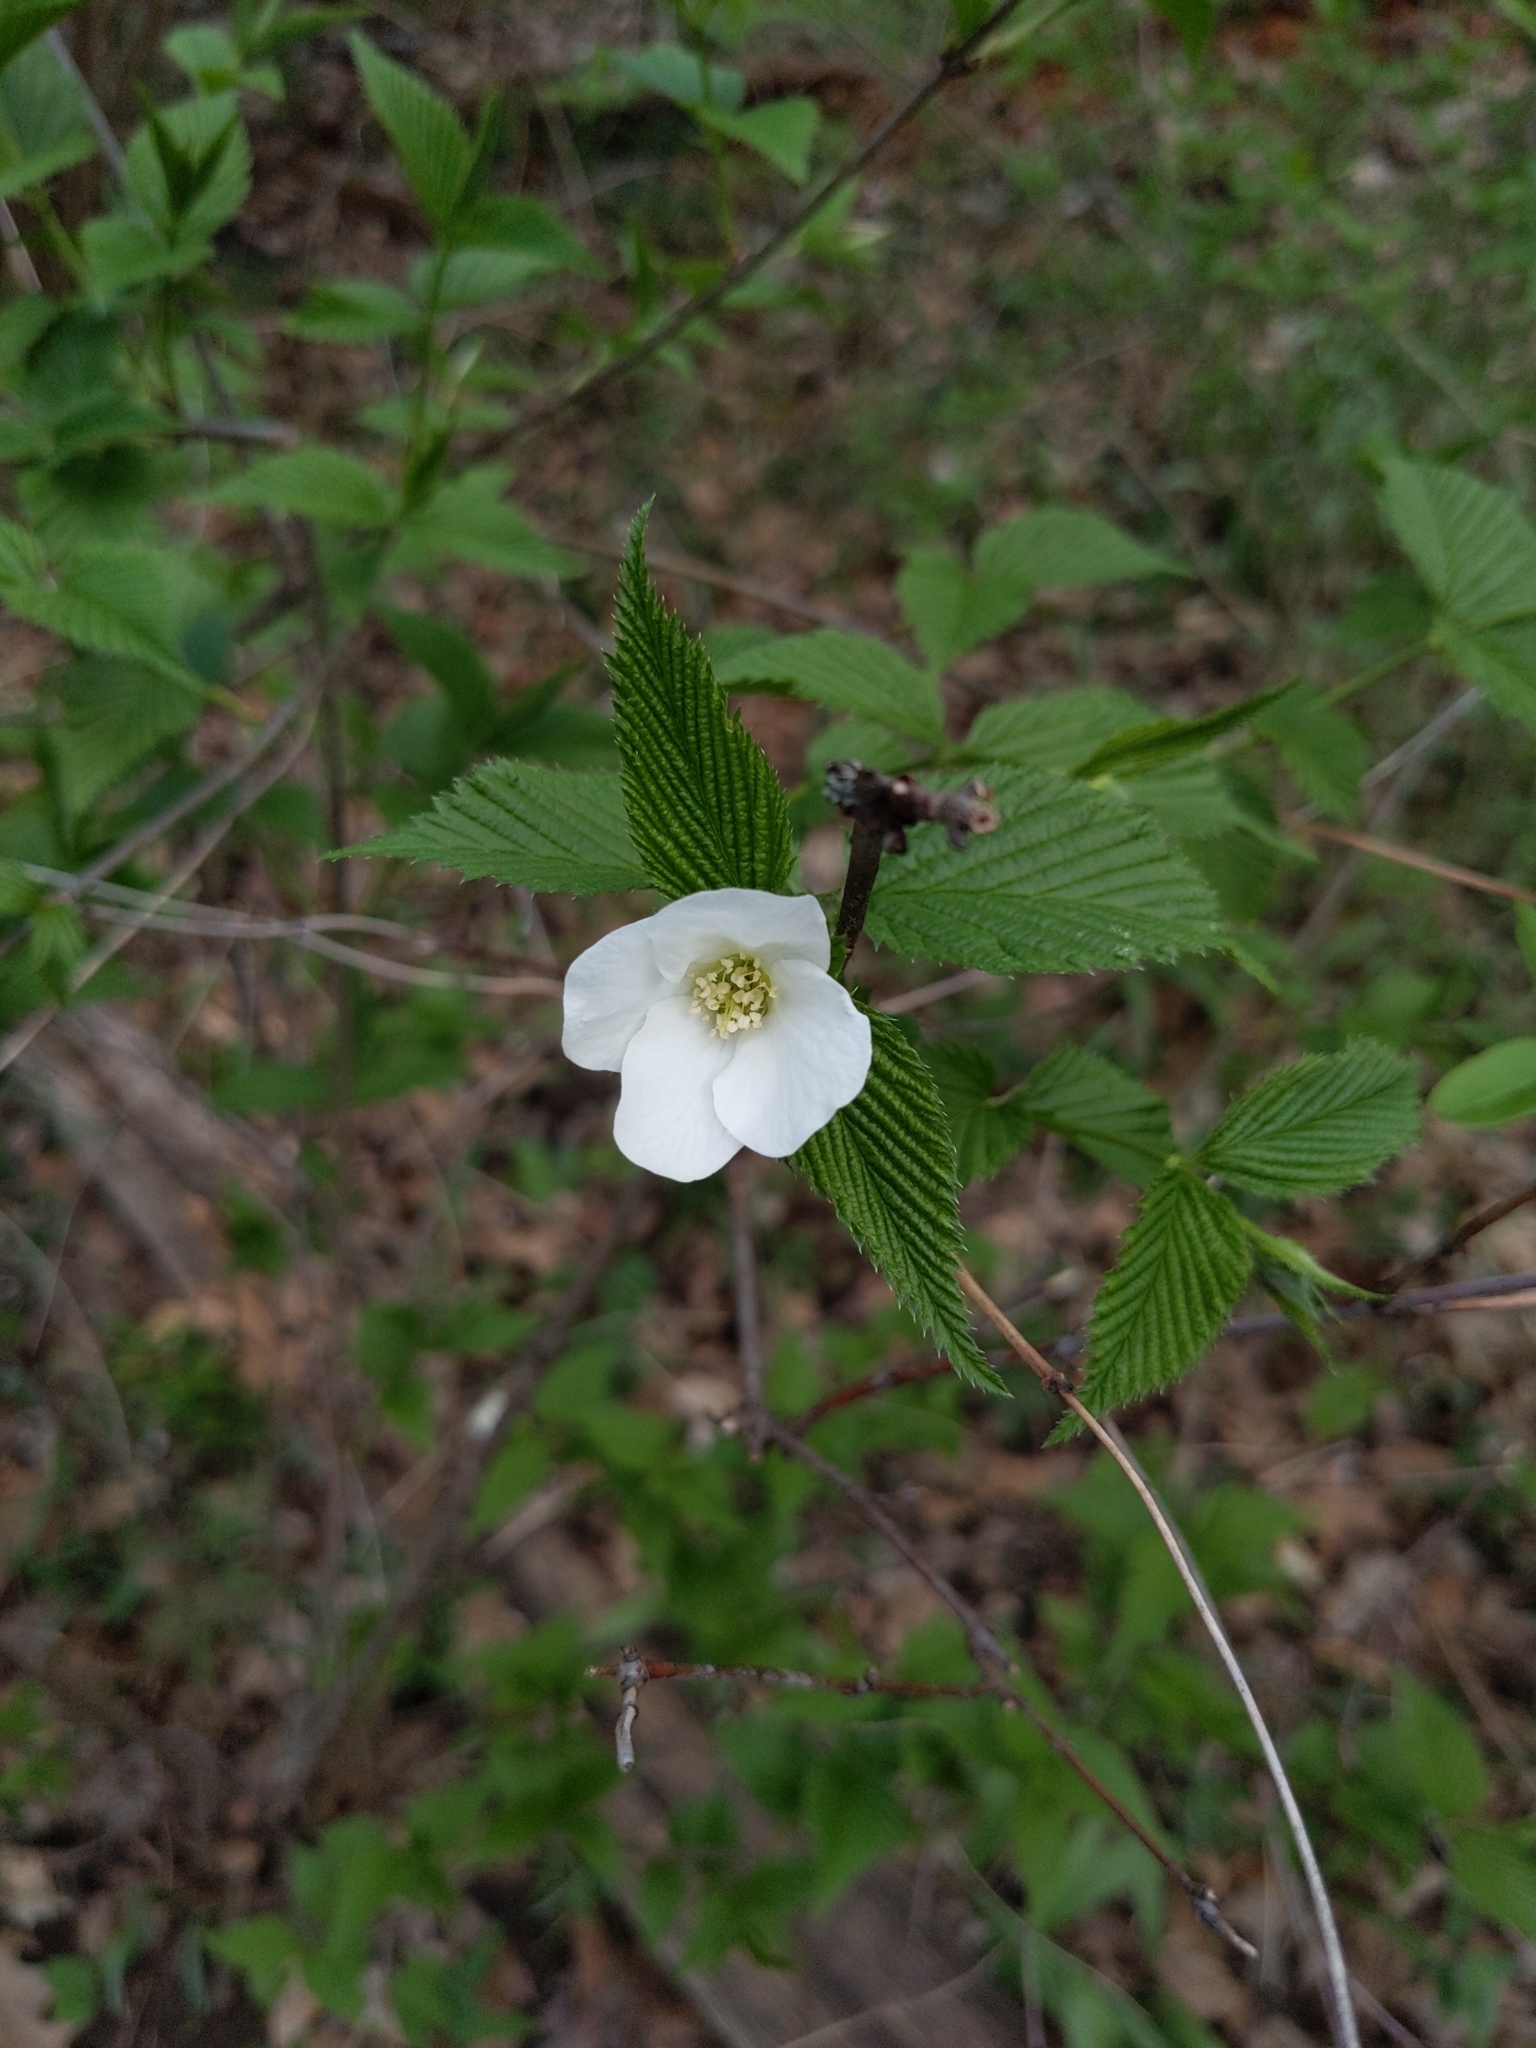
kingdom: Plantae
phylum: Tracheophyta
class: Magnoliopsida
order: Rosales
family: Rosaceae
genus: Rhodotypos
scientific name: Rhodotypos scandens
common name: Jetbead
